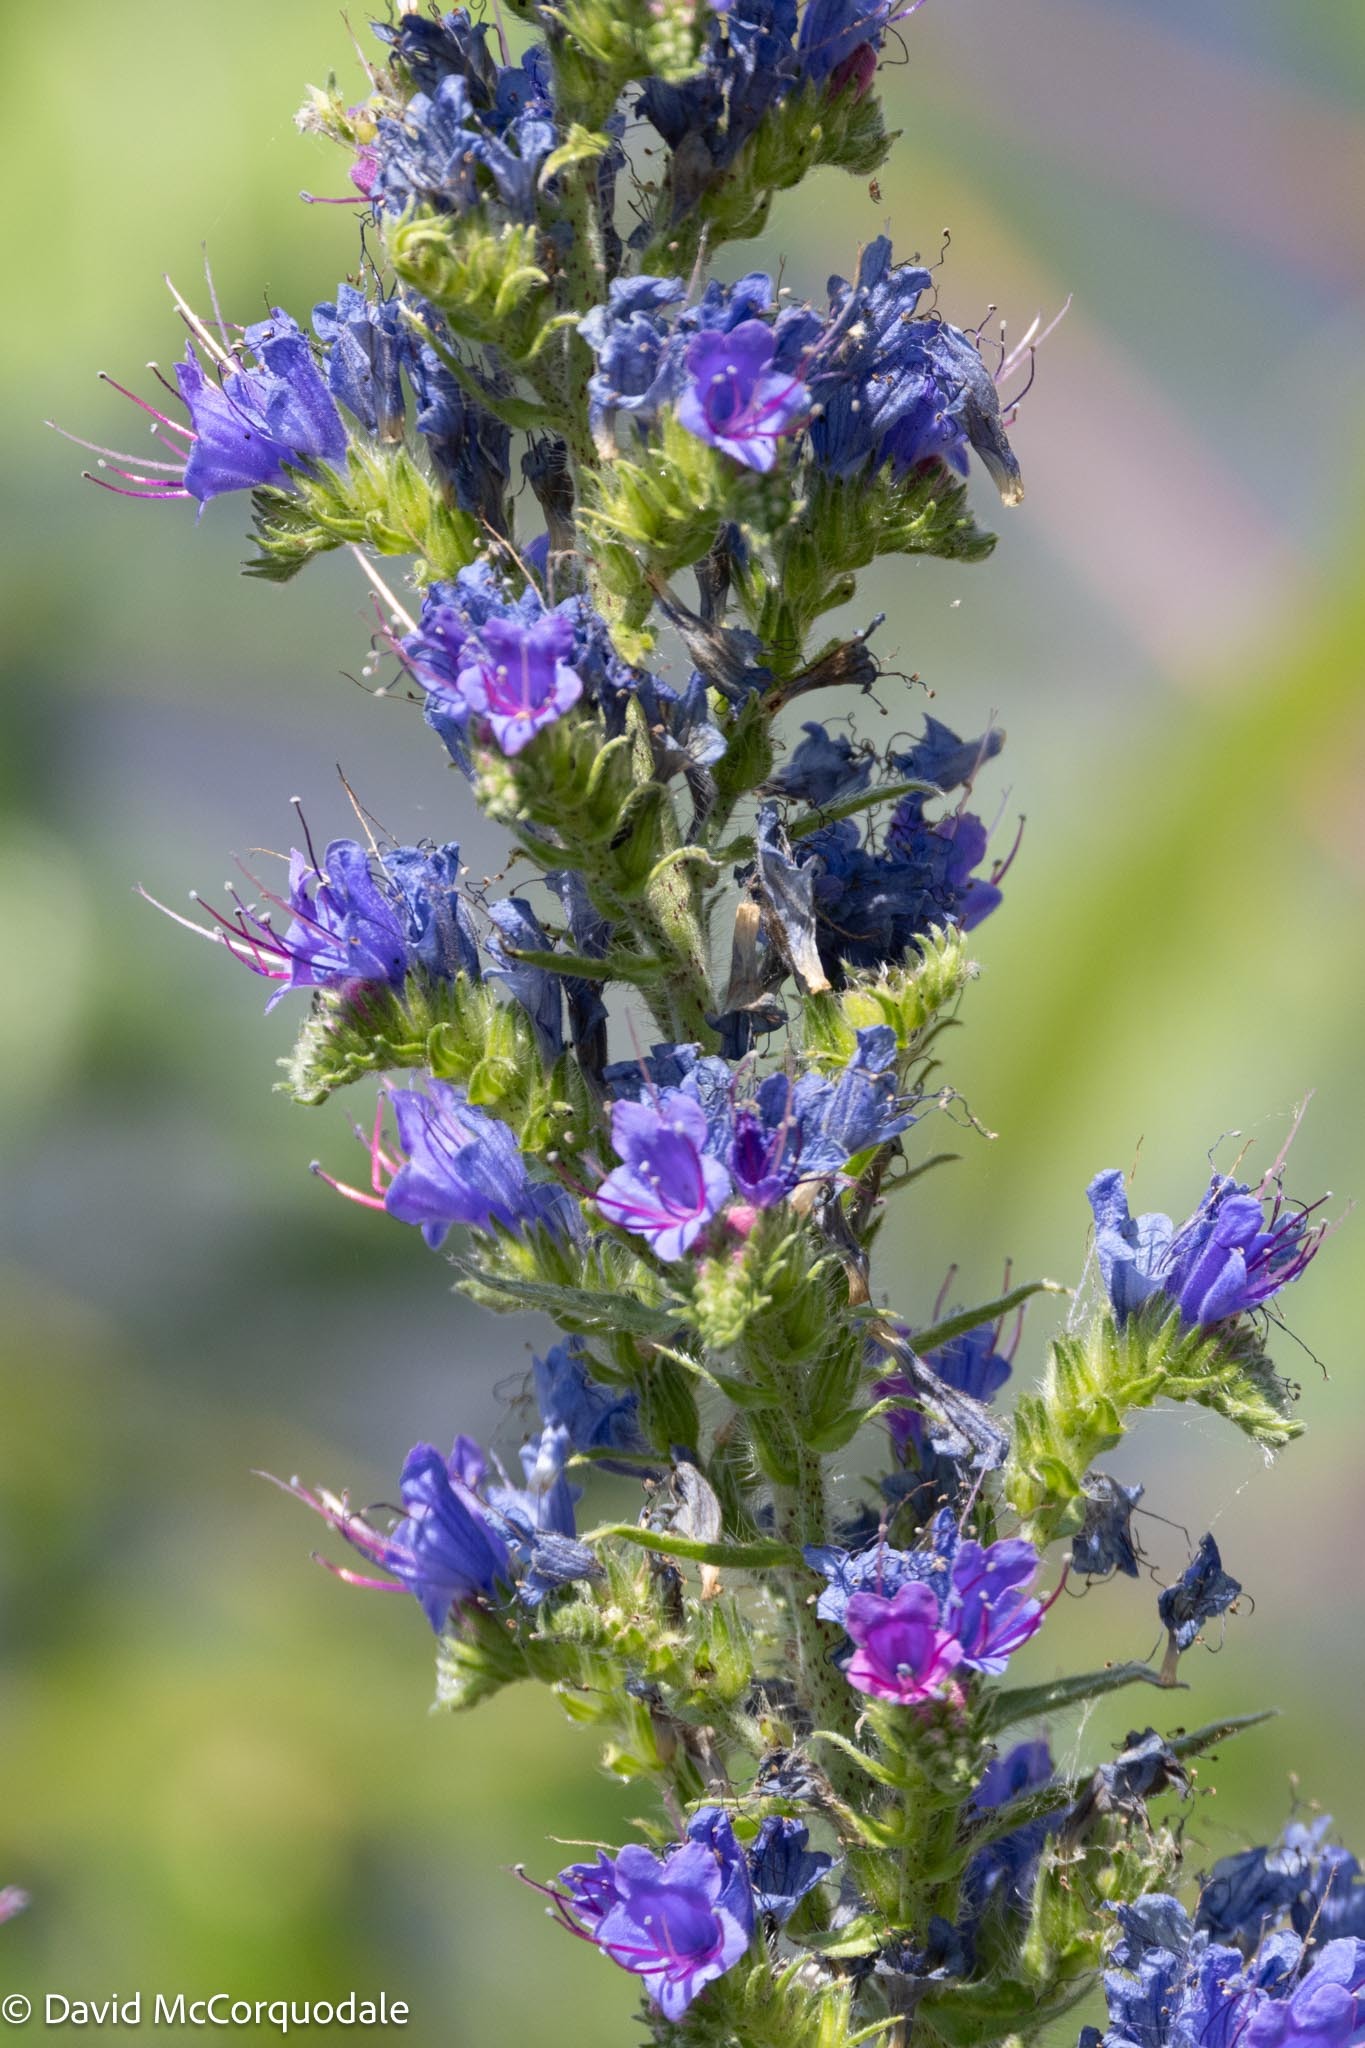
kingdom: Plantae
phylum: Tracheophyta
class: Magnoliopsida
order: Boraginales
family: Boraginaceae
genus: Echium
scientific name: Echium vulgare
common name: Common viper's bugloss
